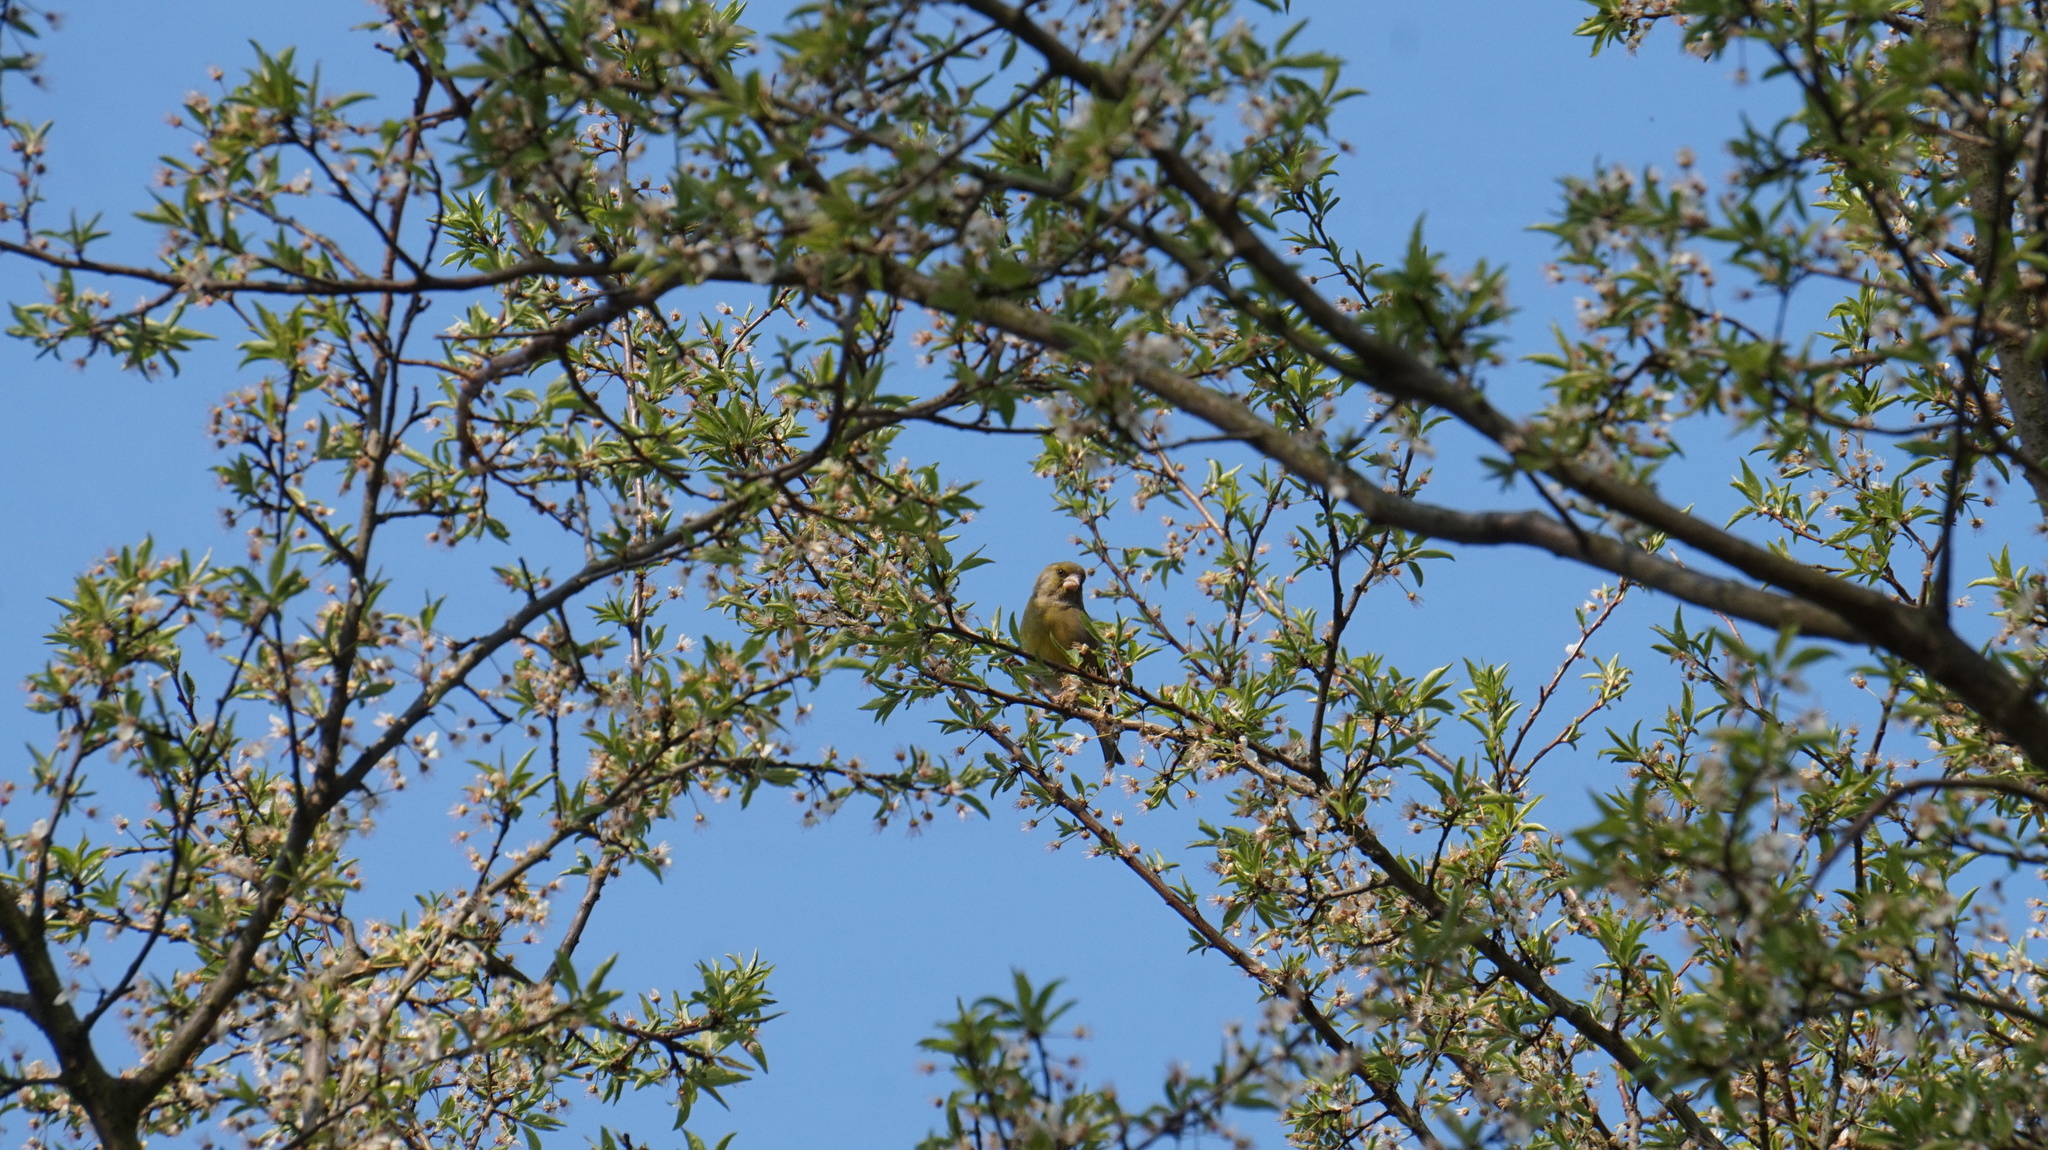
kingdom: Plantae
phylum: Tracheophyta
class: Liliopsida
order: Poales
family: Poaceae
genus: Chloris
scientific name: Chloris chloris
